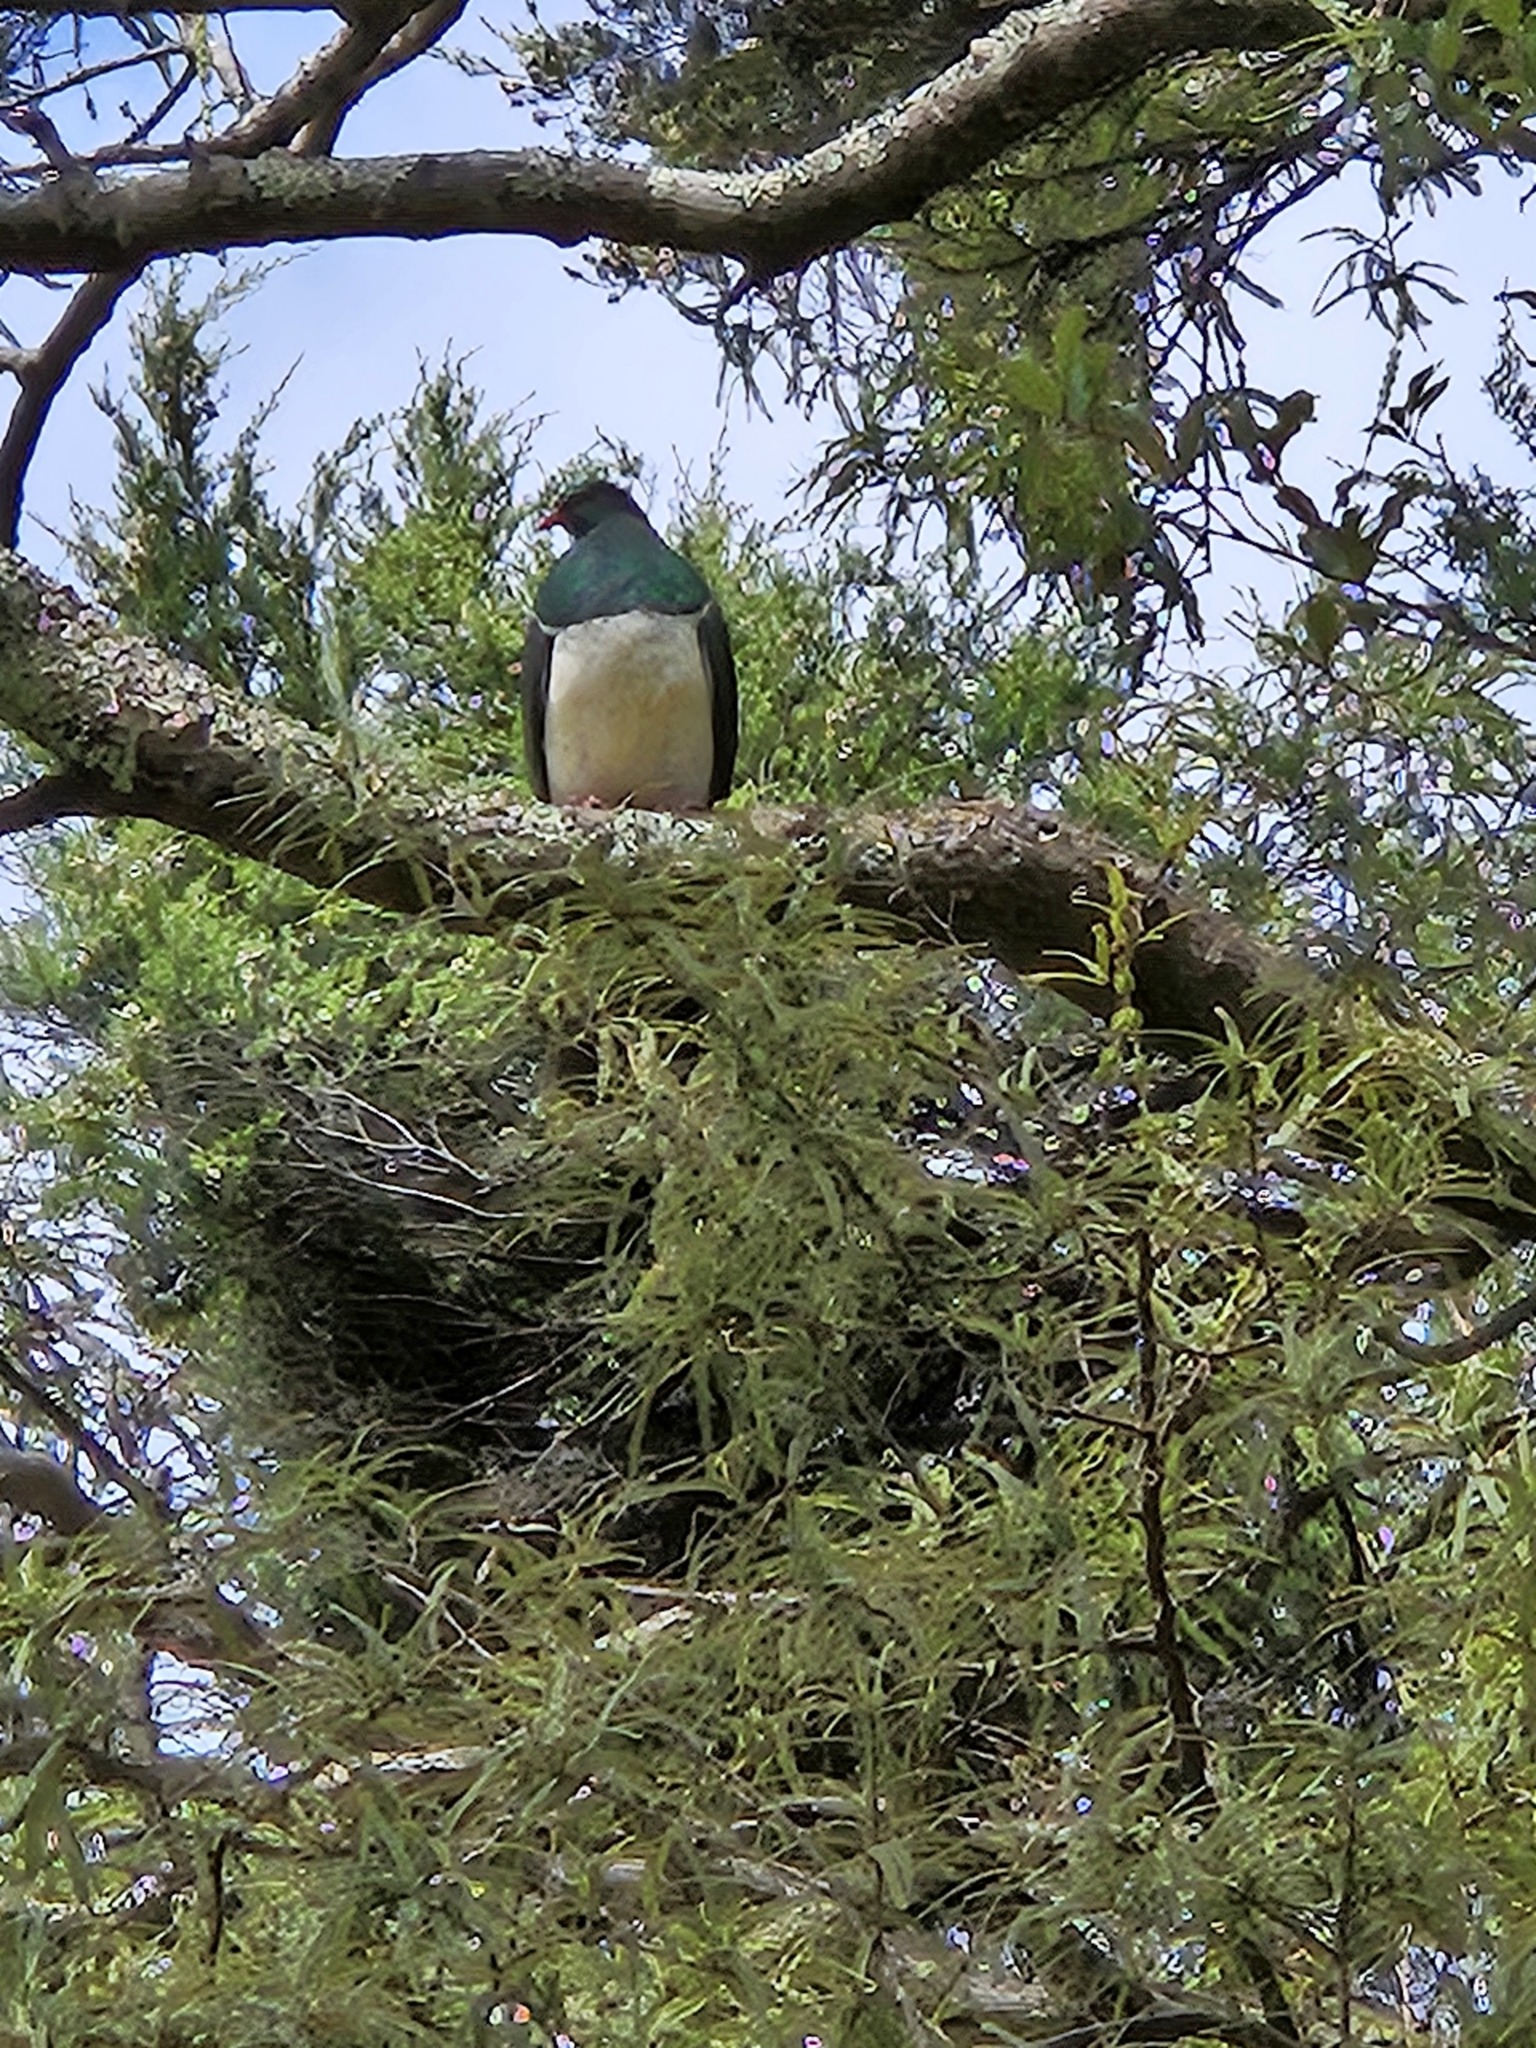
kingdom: Animalia
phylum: Chordata
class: Aves
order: Columbiformes
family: Columbidae
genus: Hemiphaga
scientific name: Hemiphaga novaeseelandiae
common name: New zealand pigeon
